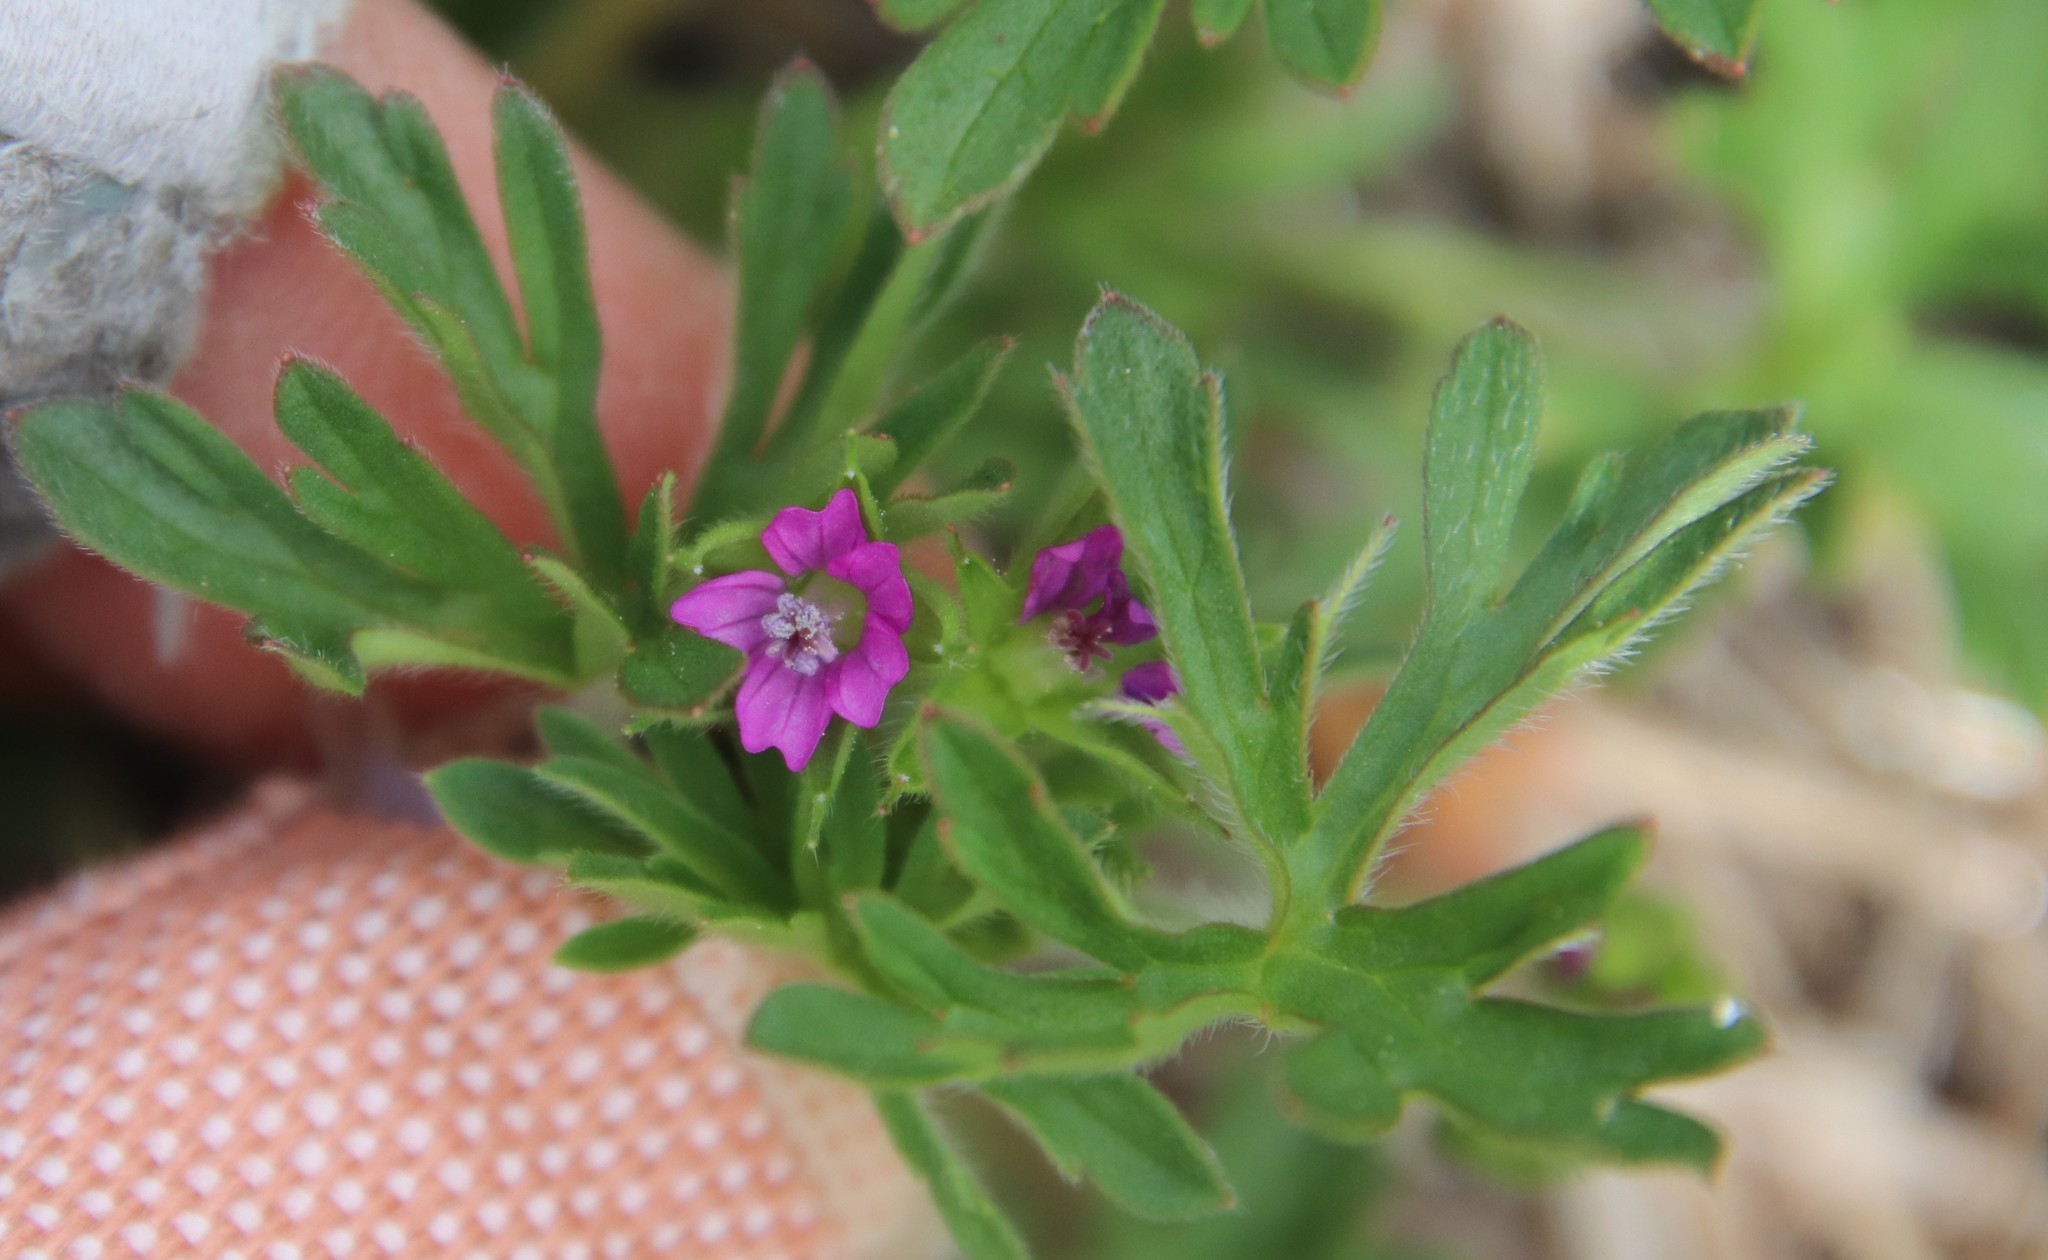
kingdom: Plantae
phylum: Tracheophyta
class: Magnoliopsida
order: Geraniales
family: Geraniaceae
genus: Geranium
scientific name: Geranium dissectum
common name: Cut-leaved crane's-bill
